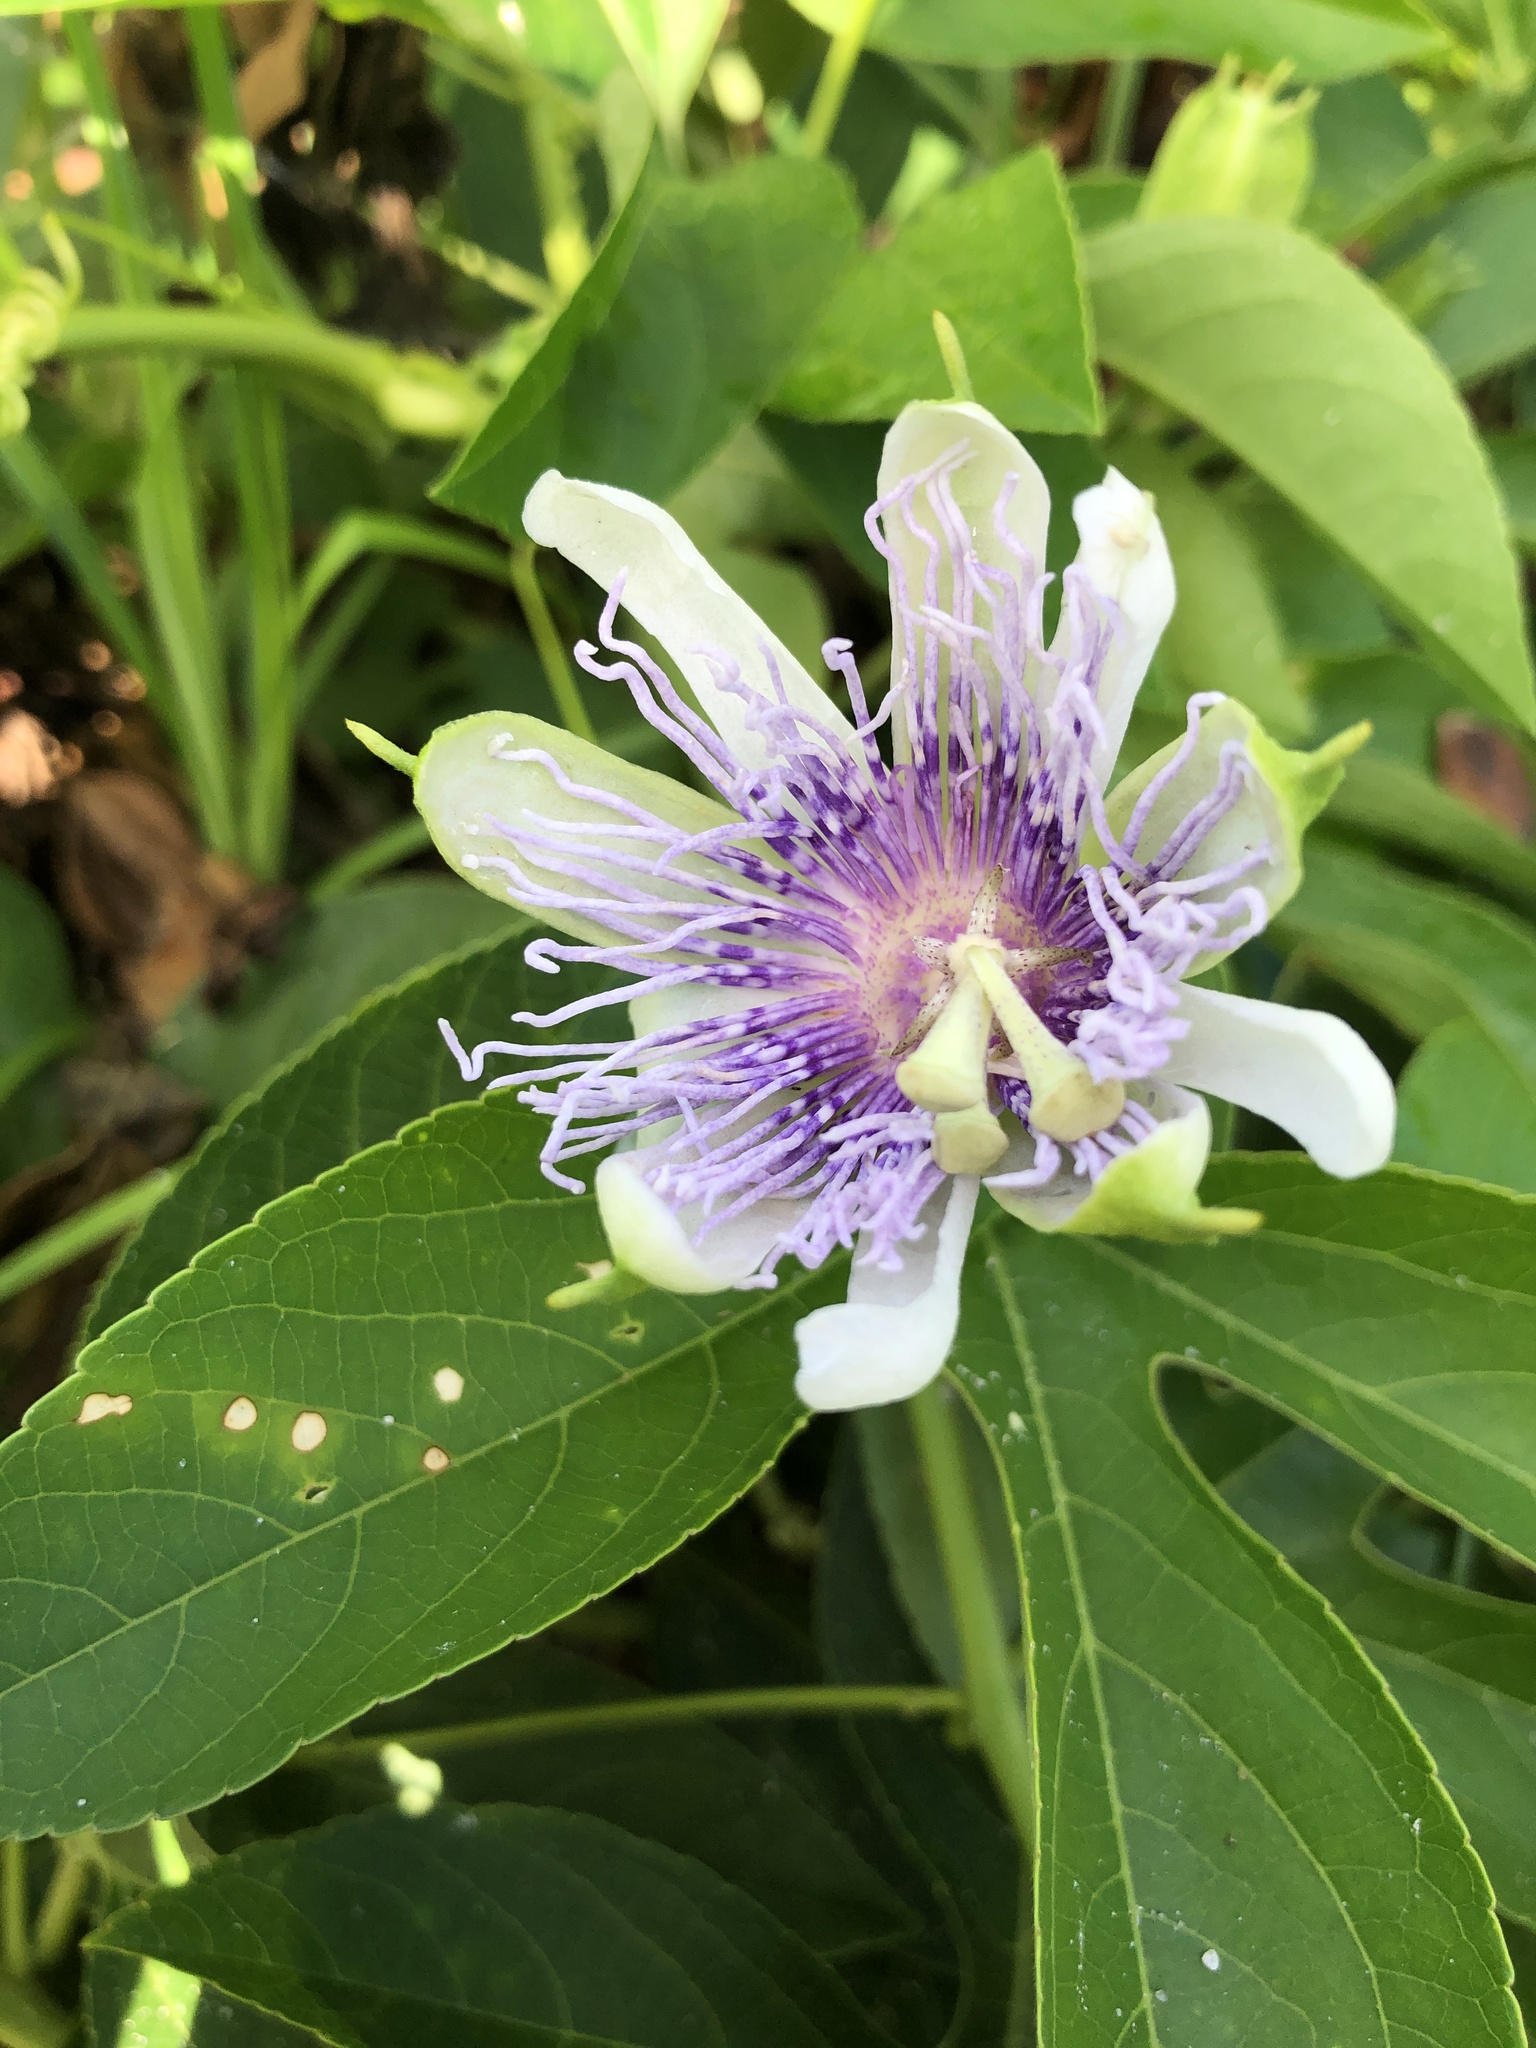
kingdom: Plantae
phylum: Tracheophyta
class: Magnoliopsida
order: Malpighiales
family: Passifloraceae
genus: Passiflora
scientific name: Passiflora incarnata
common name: Apricot-vine
